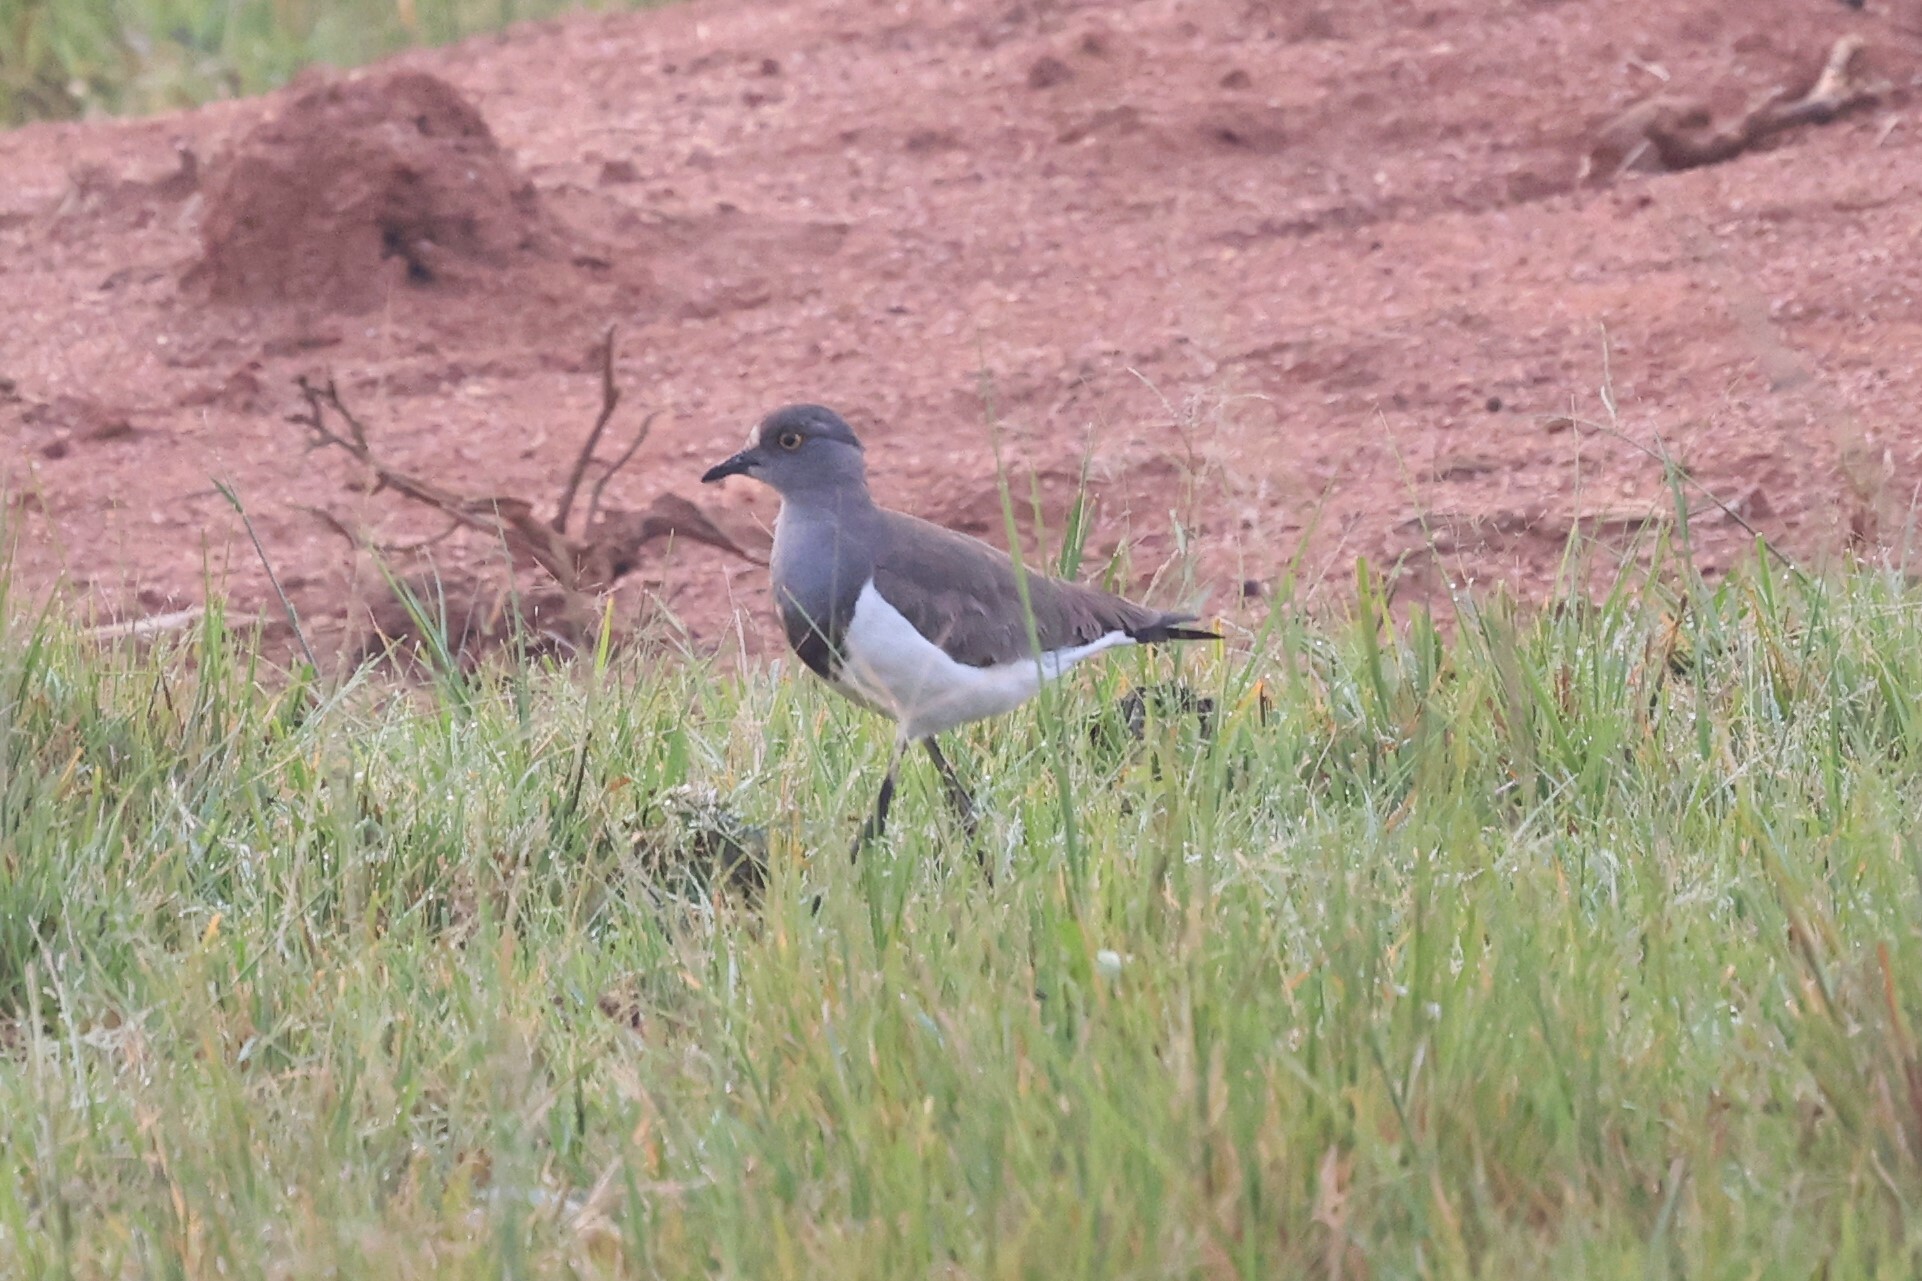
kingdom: Animalia
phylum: Chordata
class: Aves
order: Charadriiformes
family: Charadriidae
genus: Vanellus
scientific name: Vanellus lugubris
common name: Senegal lapwing
